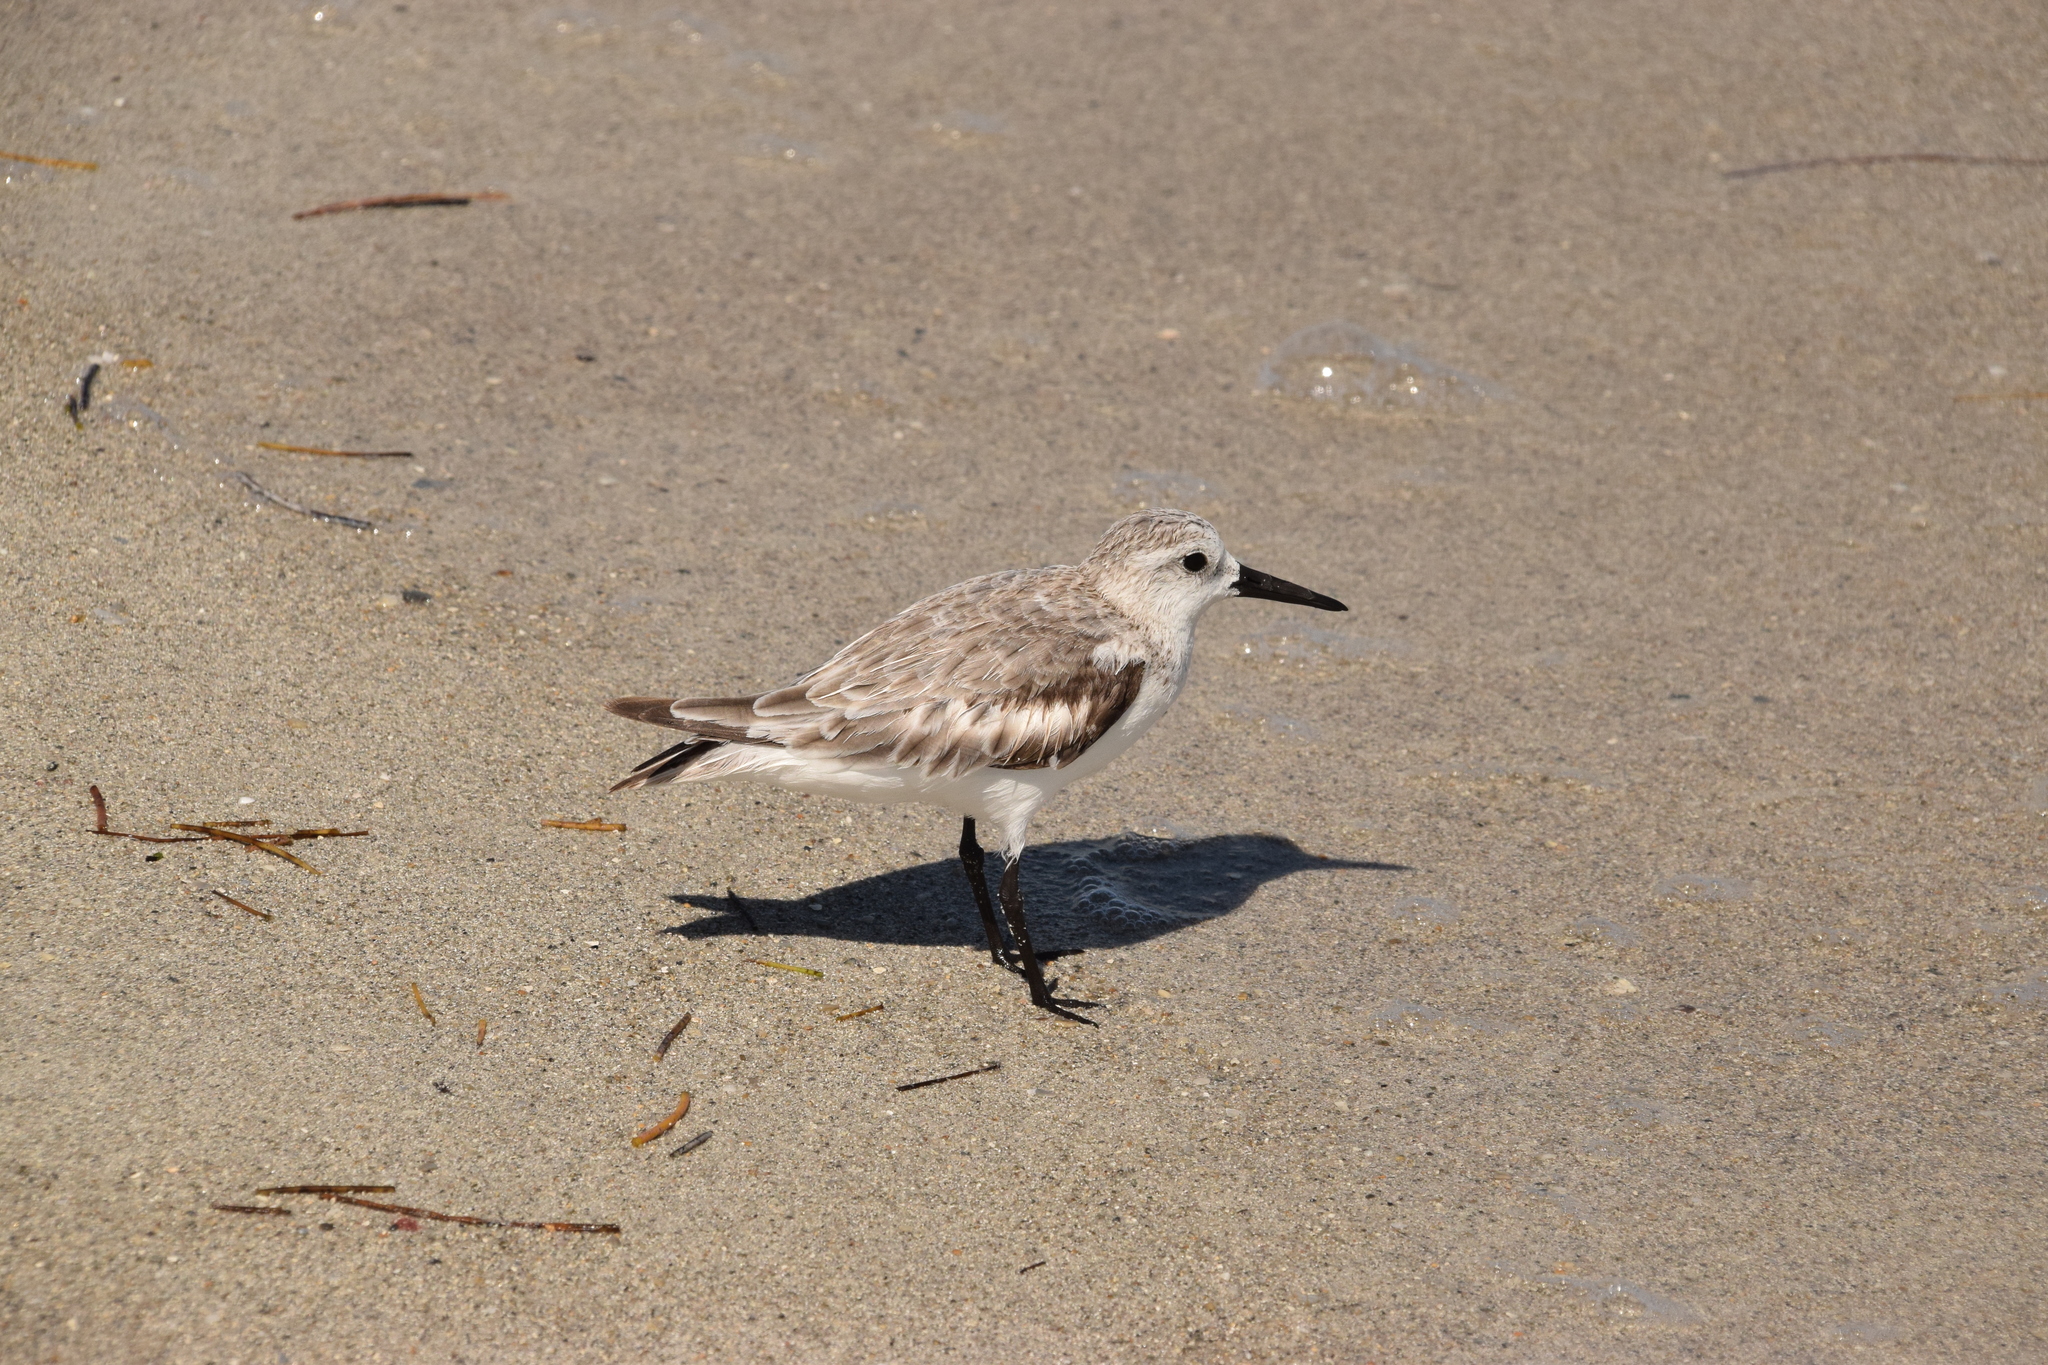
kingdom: Animalia
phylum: Chordata
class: Aves
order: Charadriiformes
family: Scolopacidae
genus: Calidris
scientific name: Calidris alba
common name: Sanderling
